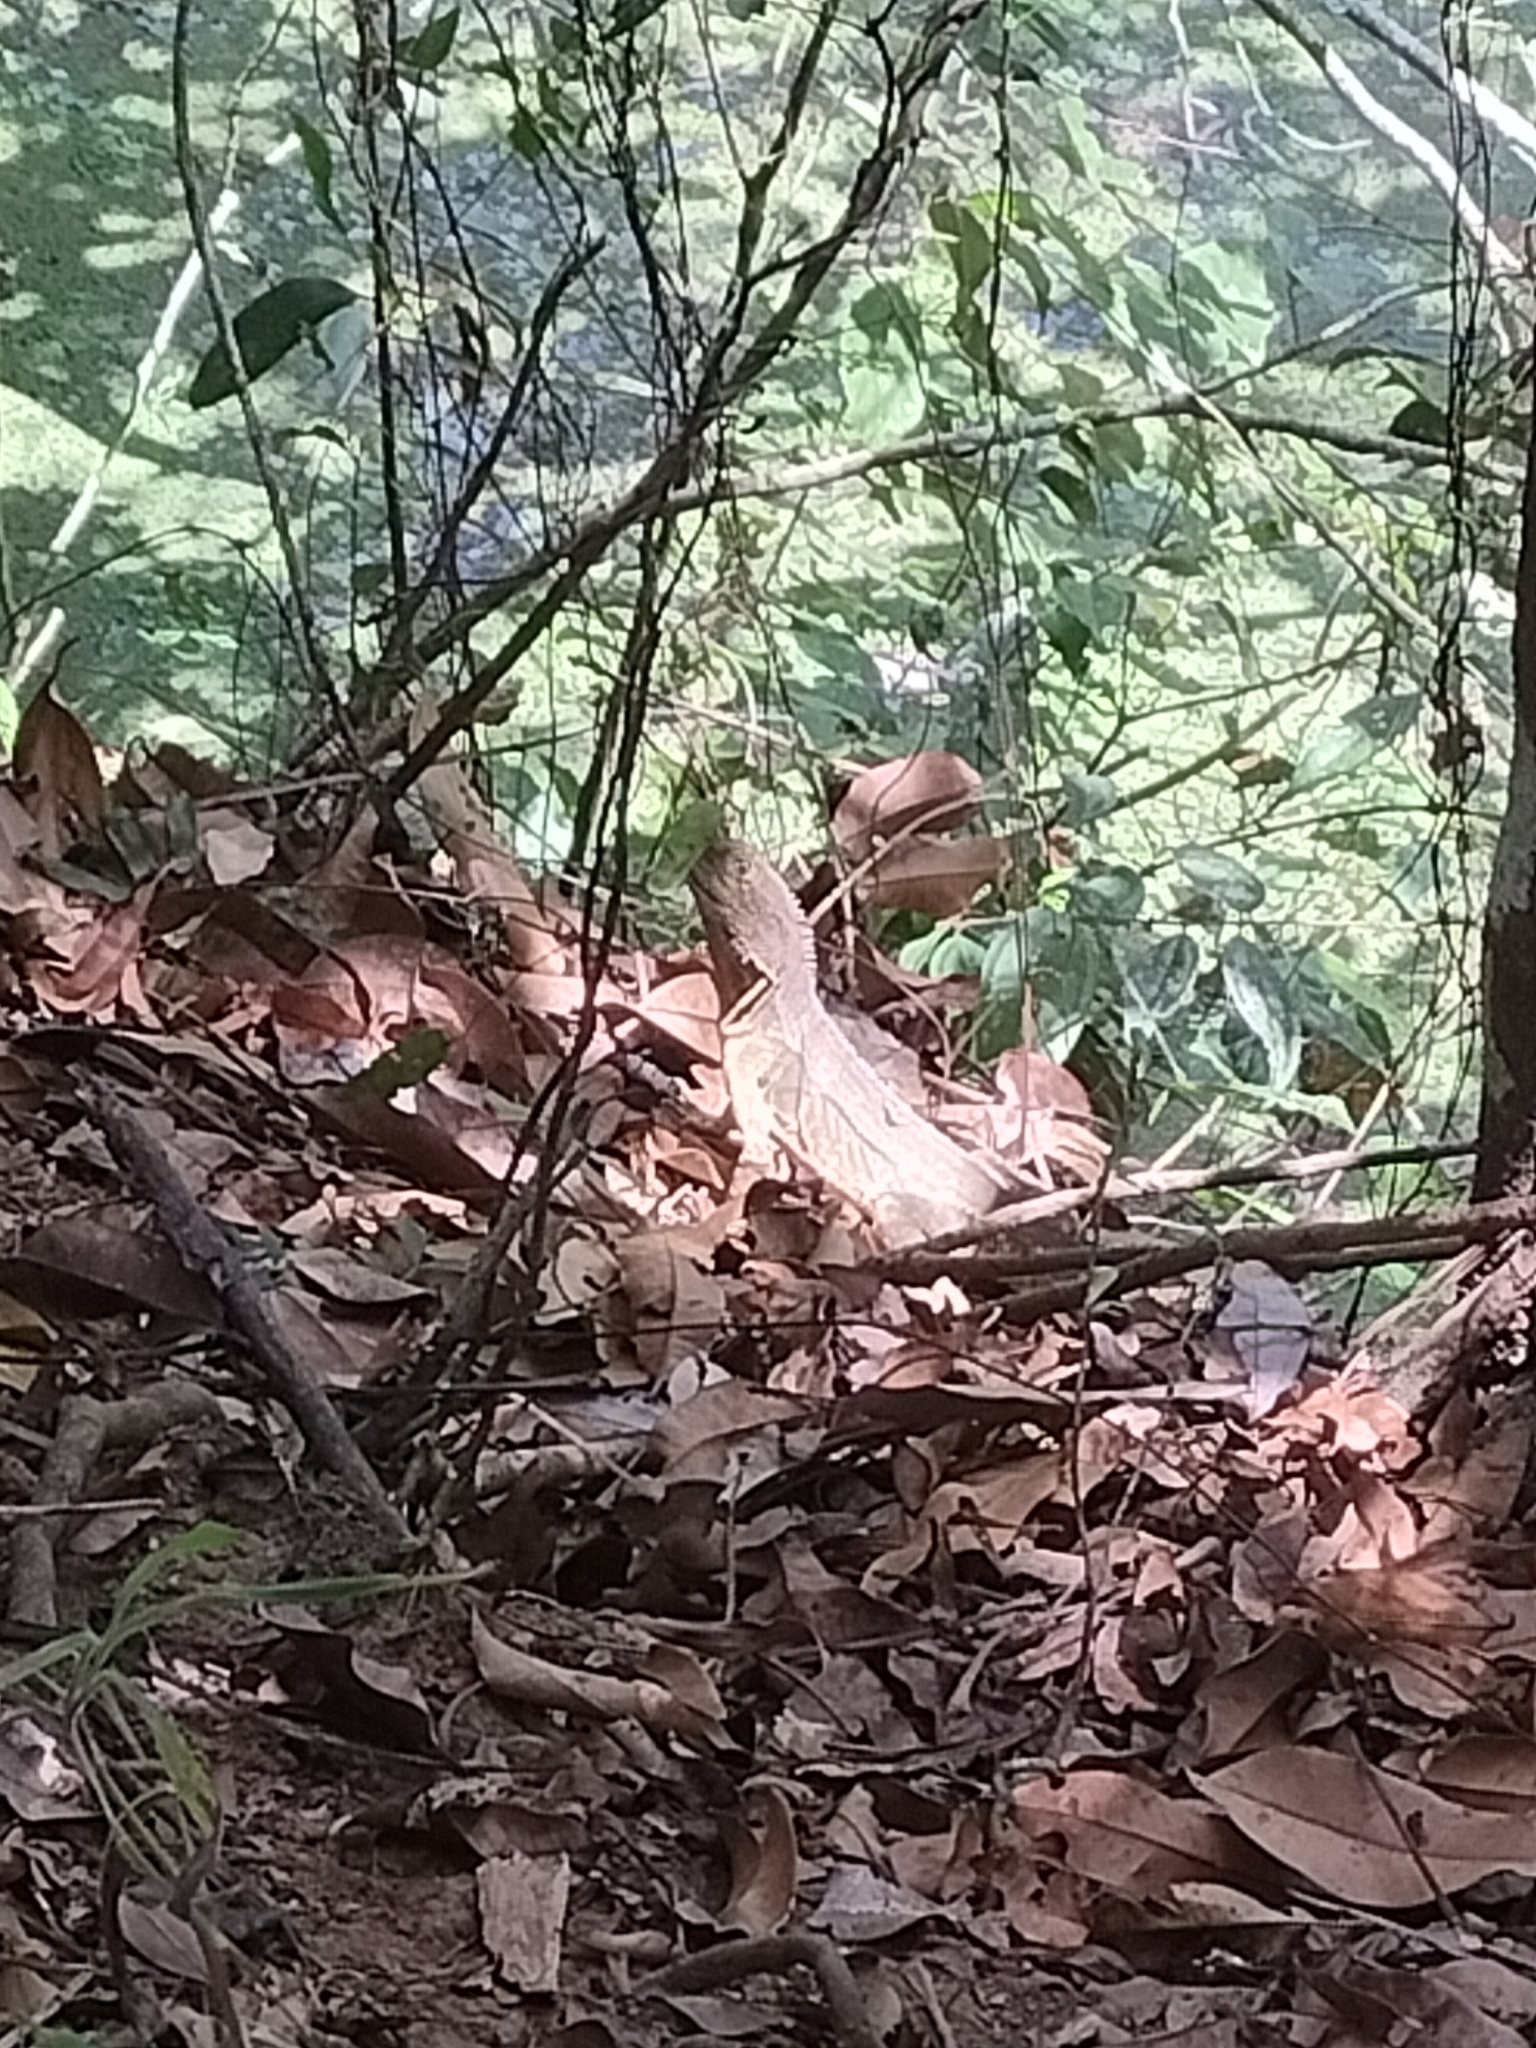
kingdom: Animalia
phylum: Chordata
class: Squamata
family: Agamidae
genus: Intellagama
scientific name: Intellagama lesueurii
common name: Eastern water dragon
